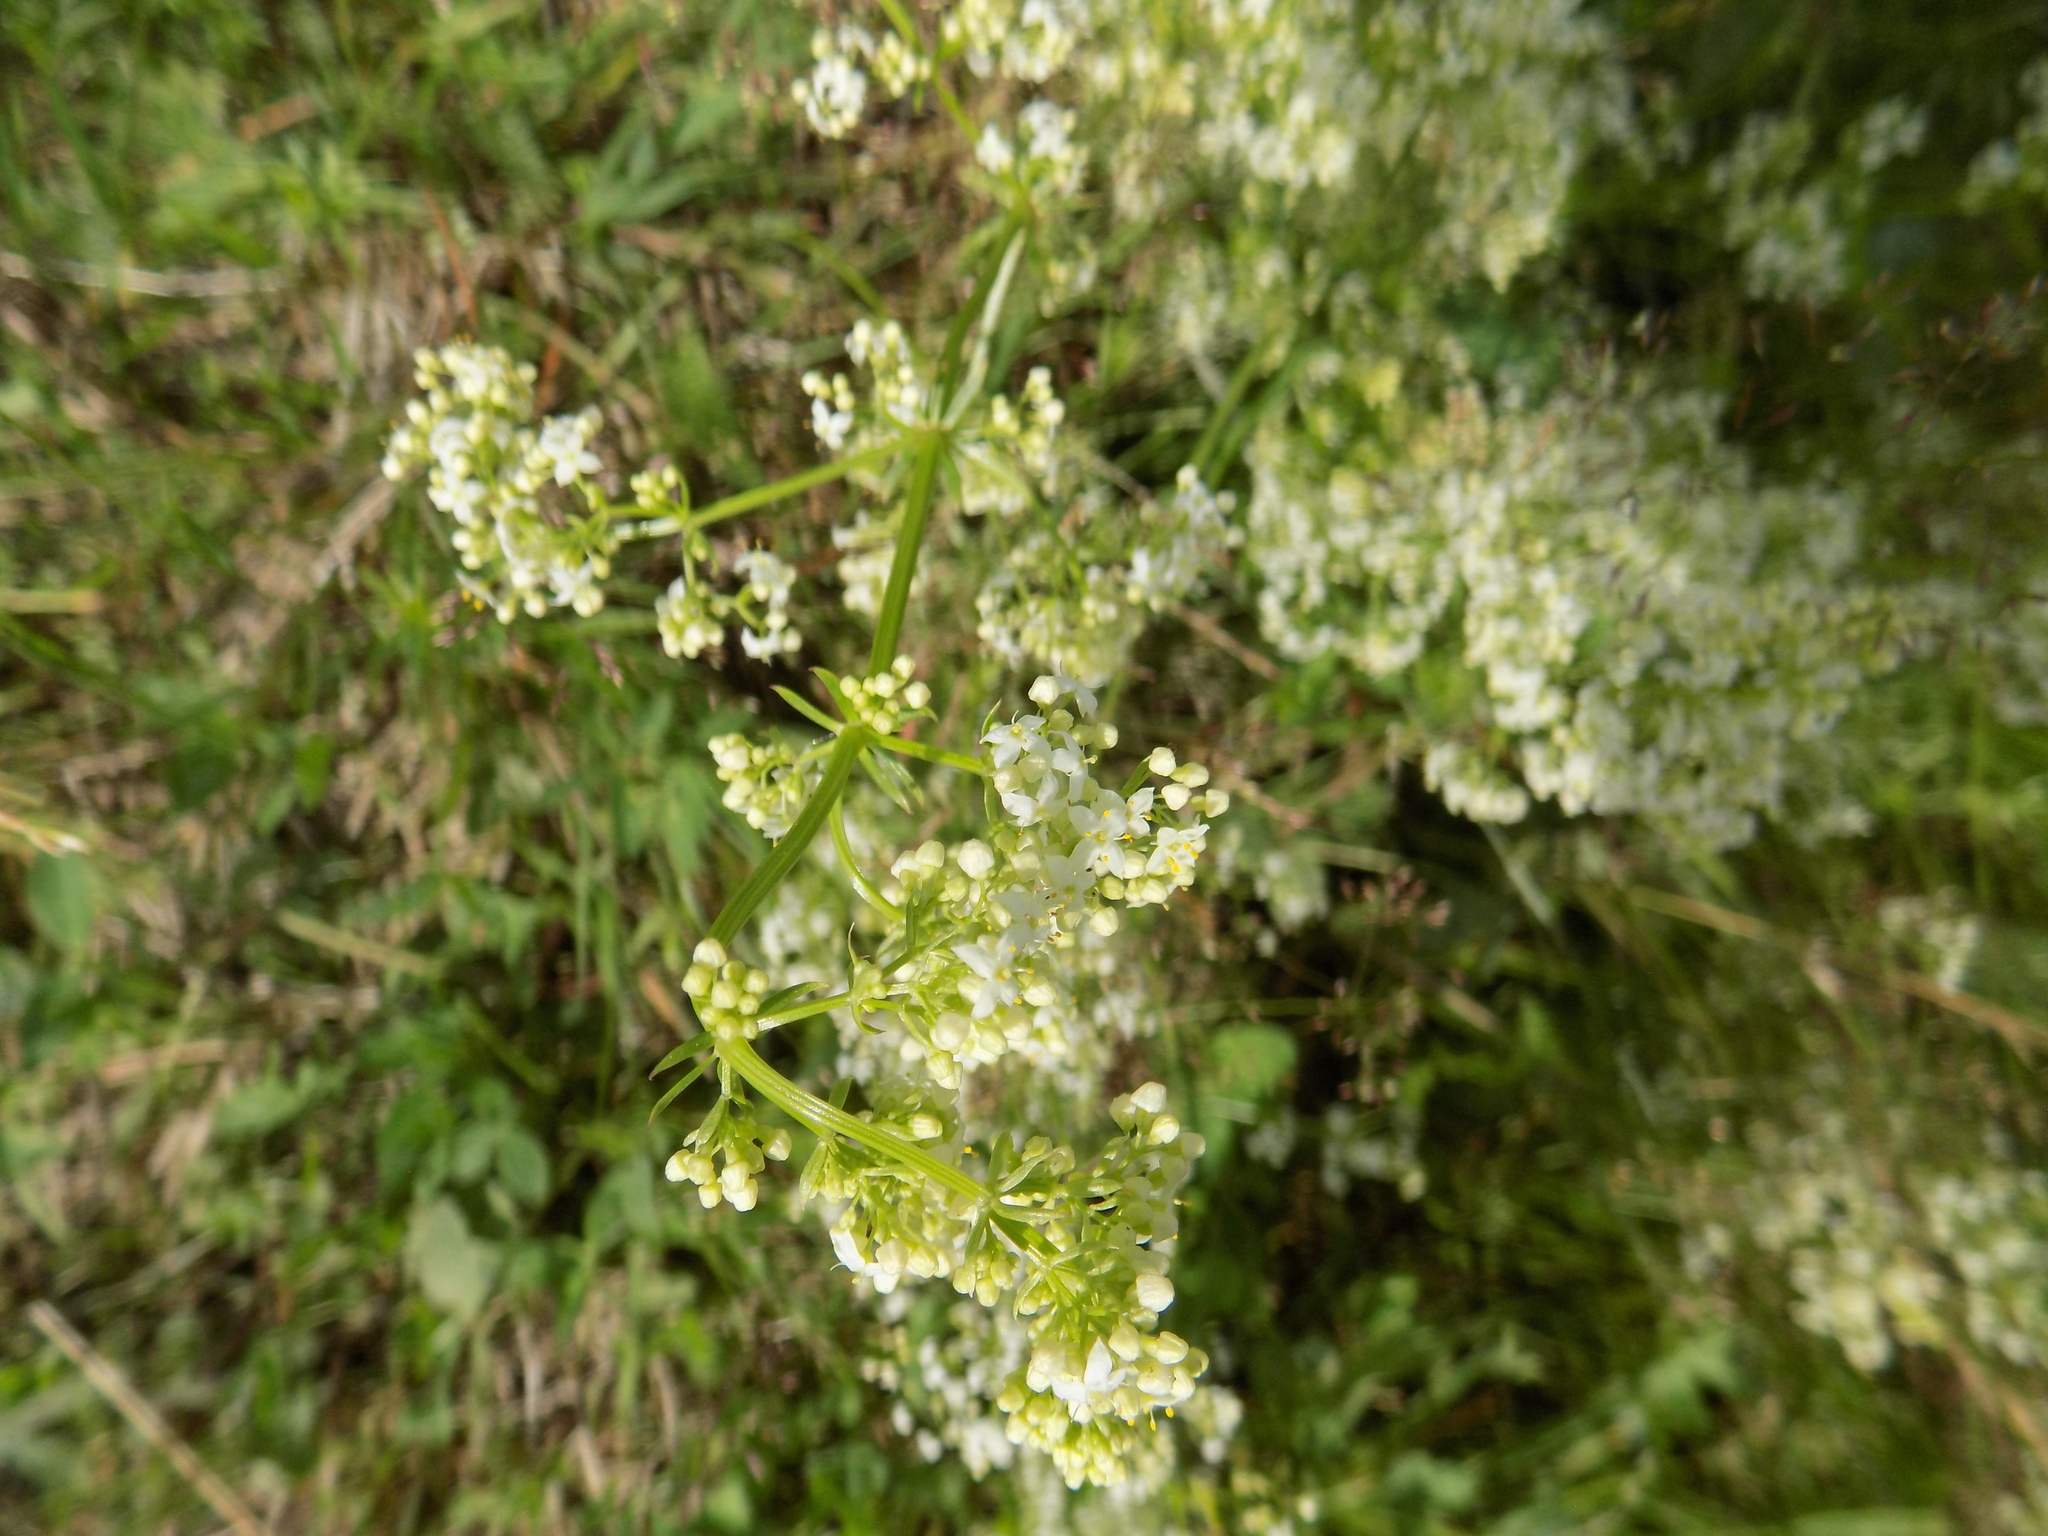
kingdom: Plantae
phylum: Tracheophyta
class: Magnoliopsida
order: Gentianales
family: Rubiaceae
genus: Galium
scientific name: Galium mollugo
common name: Hedge bedstraw
